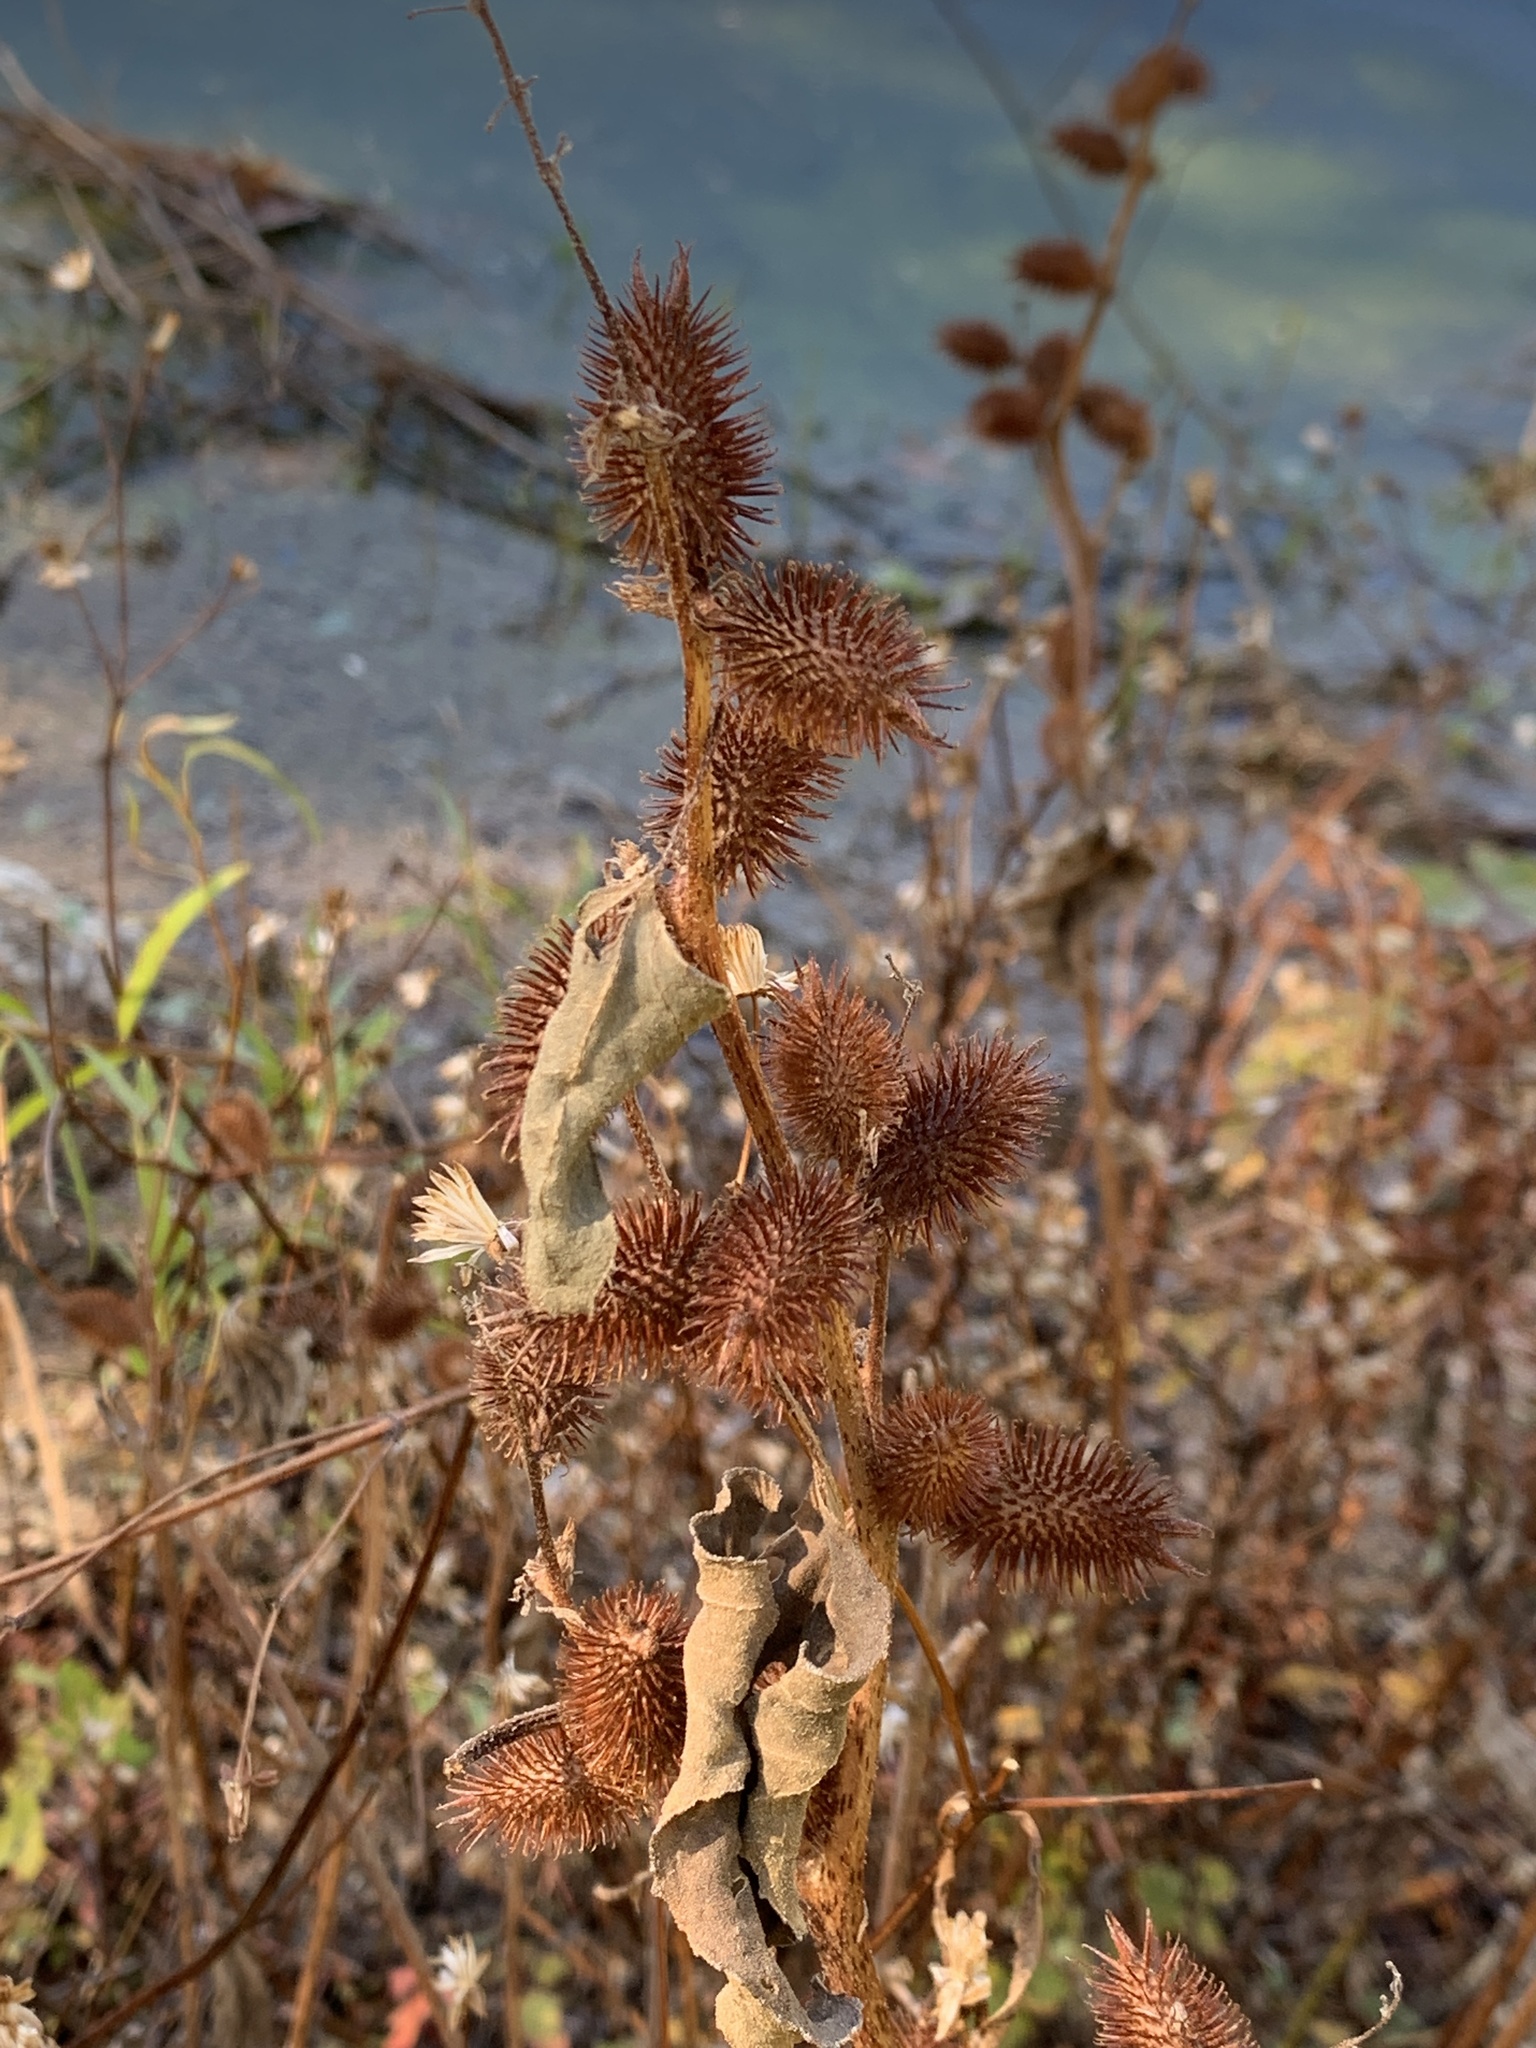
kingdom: Plantae
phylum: Tracheophyta
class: Magnoliopsida
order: Asterales
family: Asteraceae
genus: Xanthium
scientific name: Xanthium strumarium
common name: Rough cocklebur
